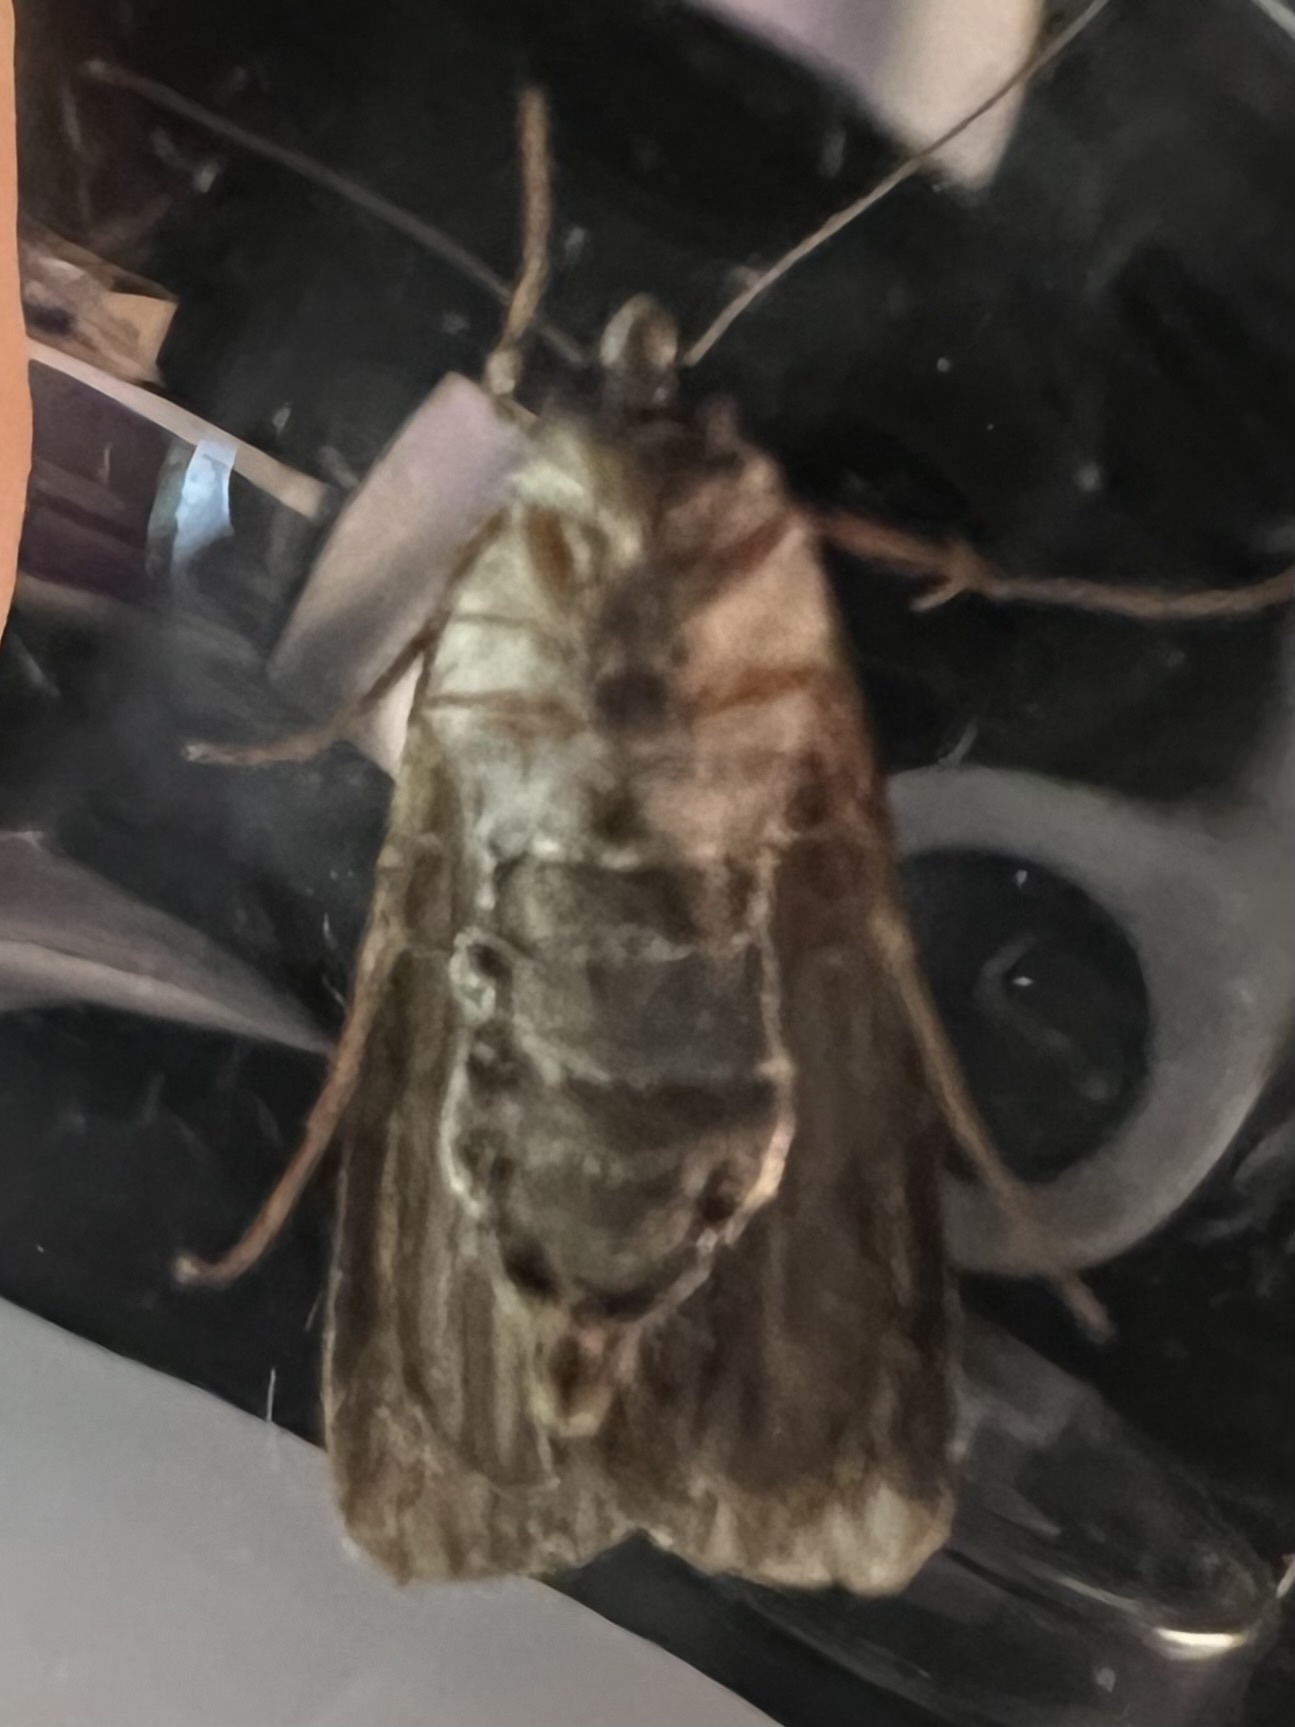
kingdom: Animalia
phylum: Arthropoda
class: Insecta
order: Lepidoptera
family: Noctuidae
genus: Agrotis
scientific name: Agrotis ipsilon
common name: Dark sword-grass
